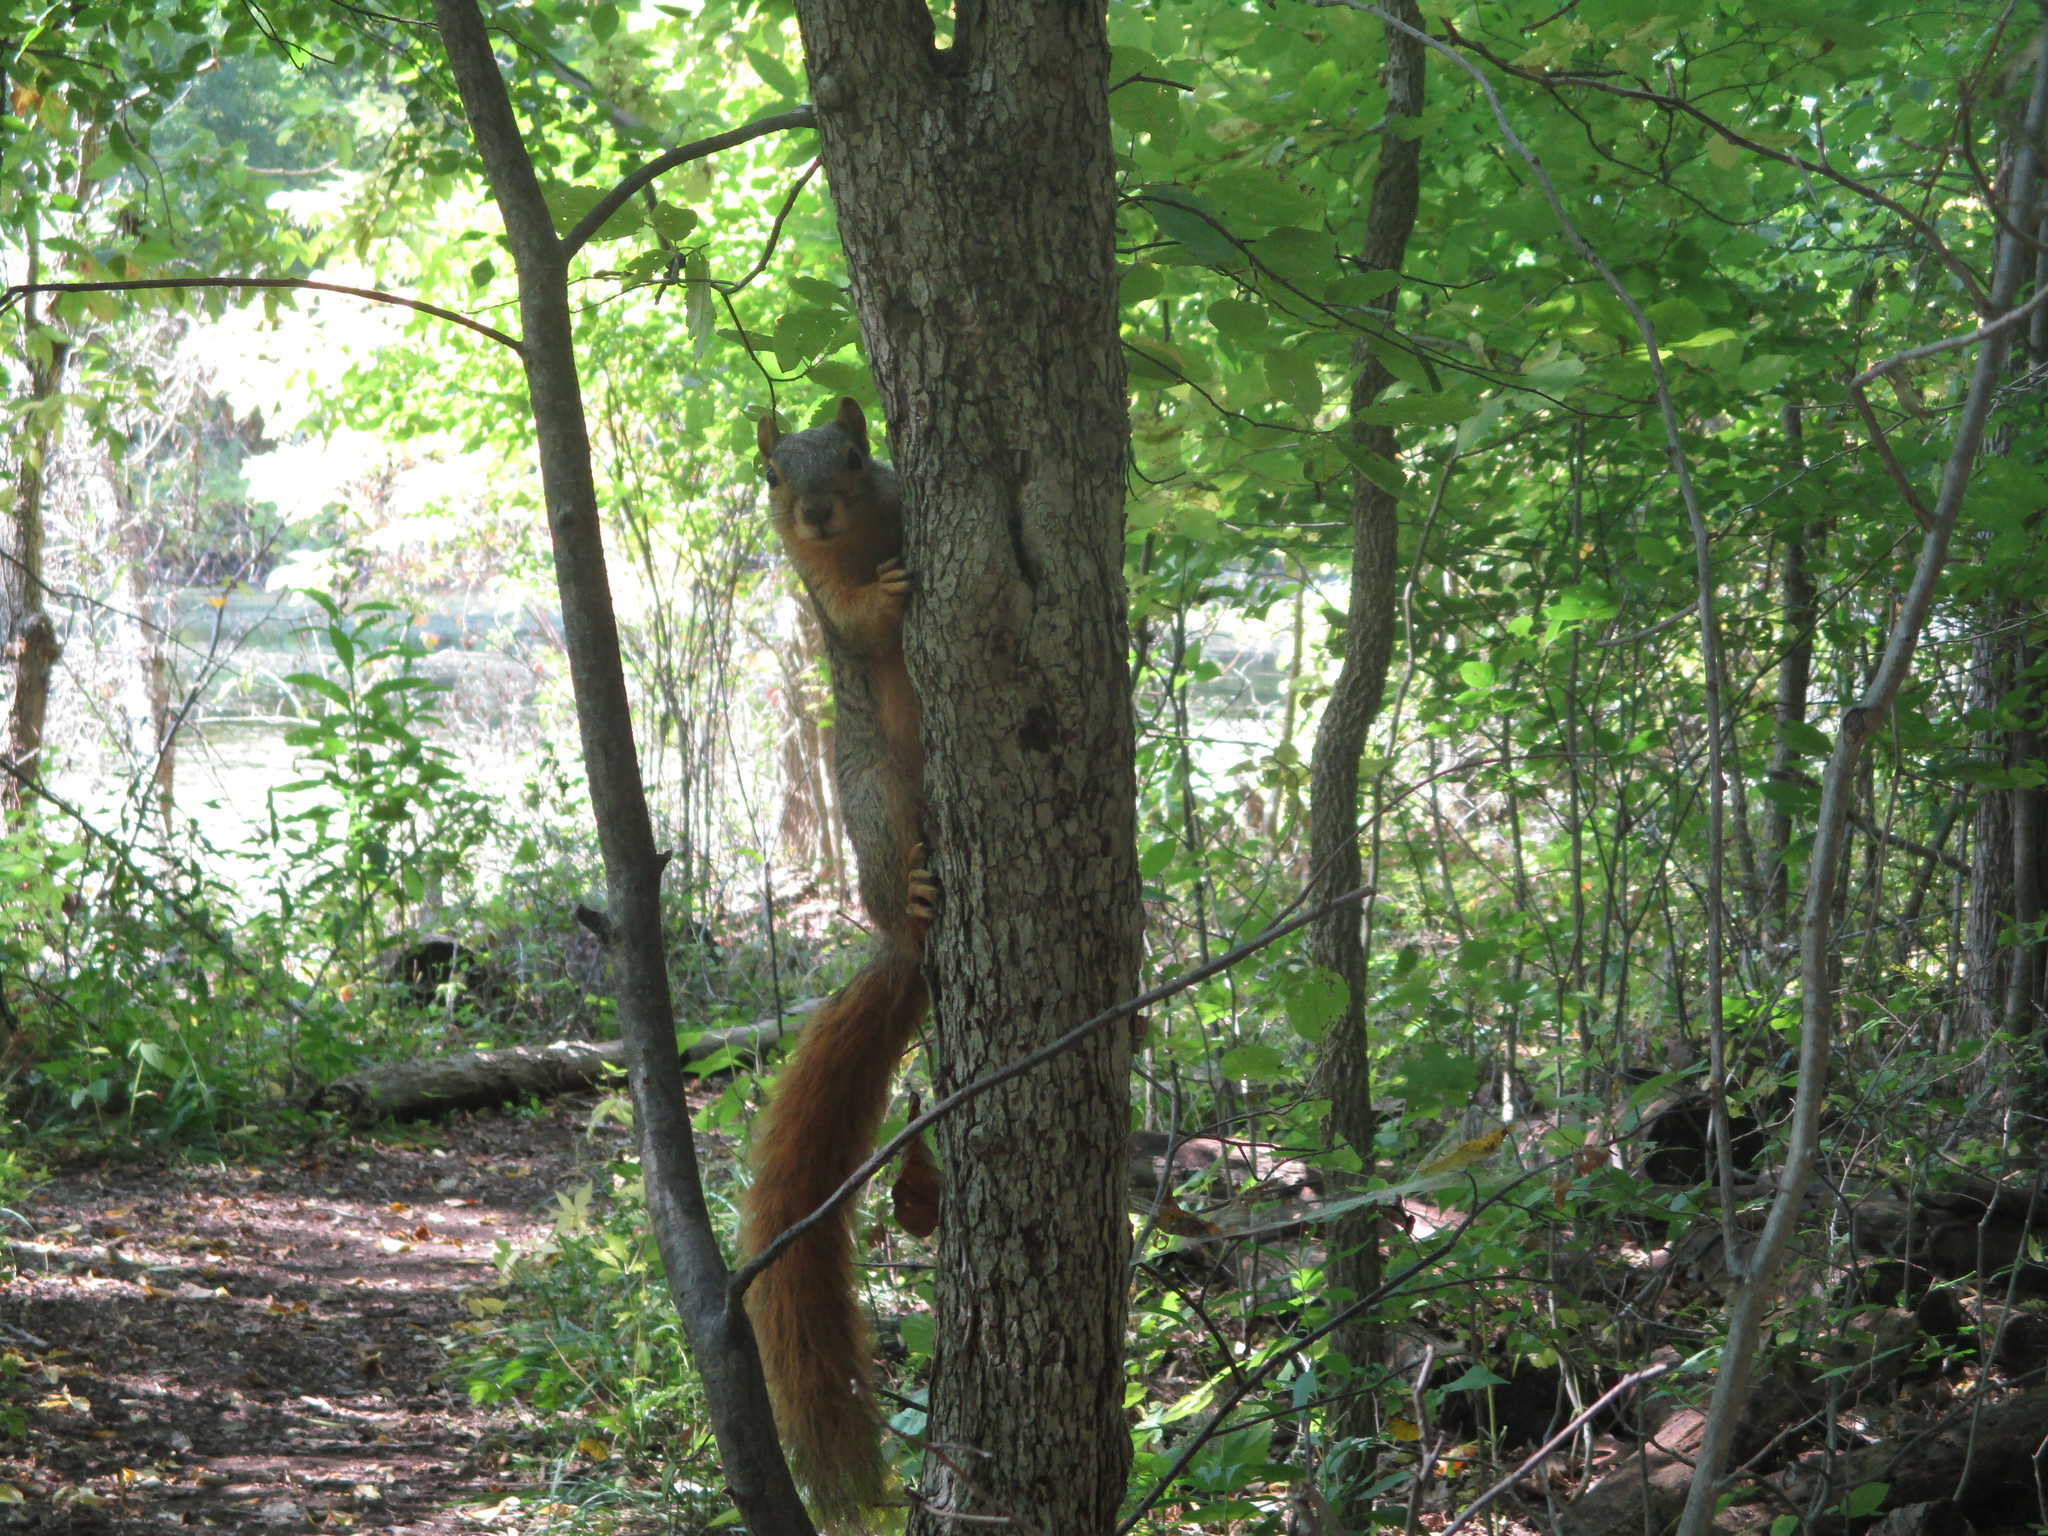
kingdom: Animalia
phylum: Chordata
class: Mammalia
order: Rodentia
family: Sciuridae
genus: Sciurus
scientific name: Sciurus niger
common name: Fox squirrel
